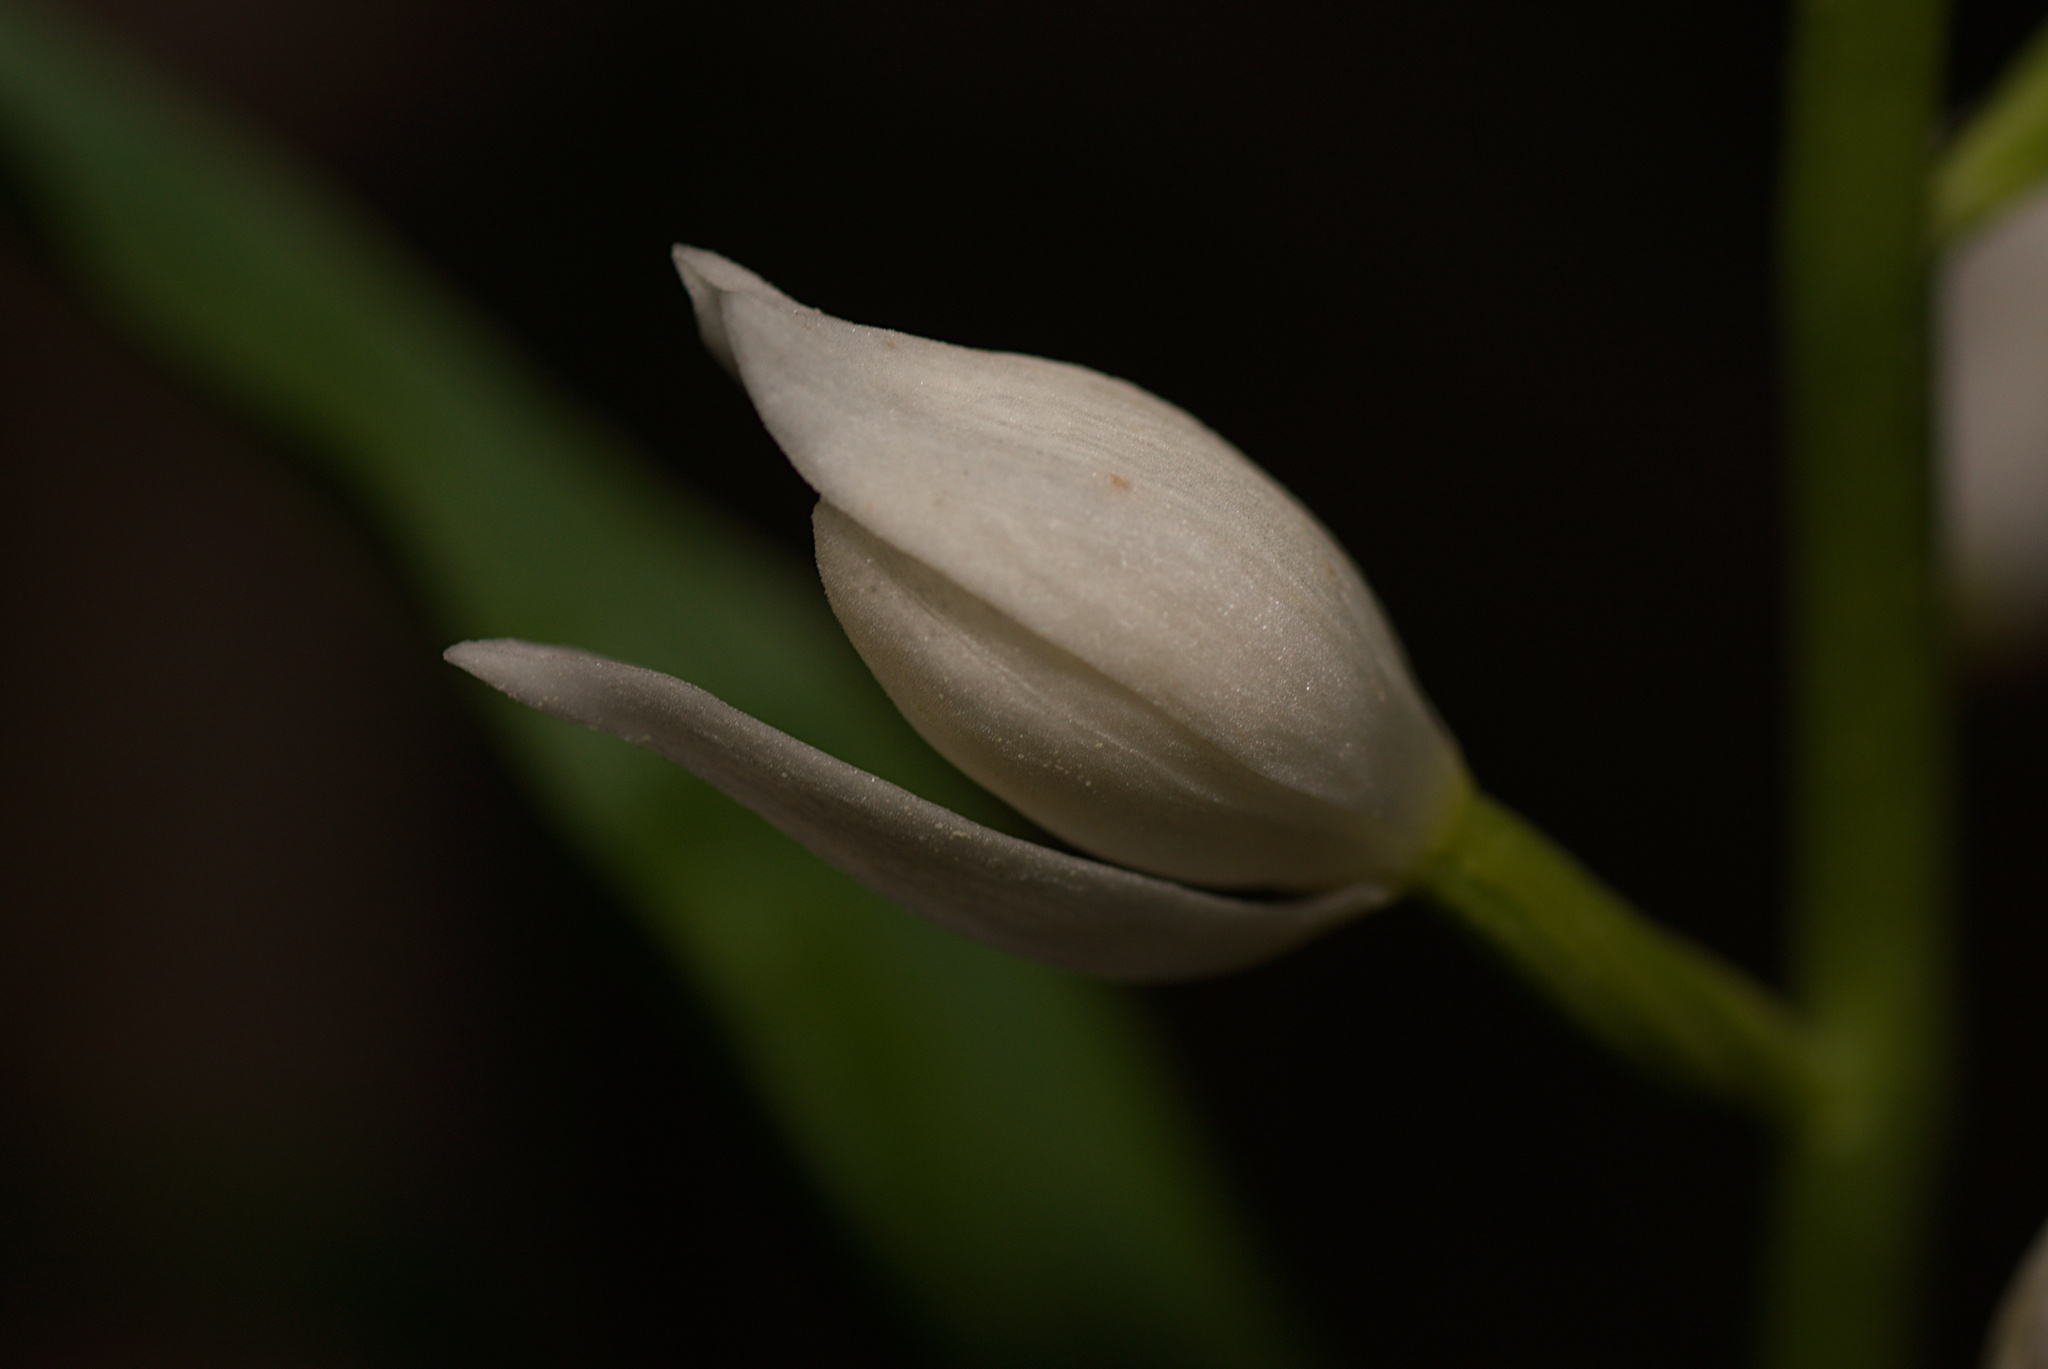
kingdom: Plantae
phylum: Tracheophyta
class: Liliopsida
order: Asparagales
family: Orchidaceae
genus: Cephalanthera
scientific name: Cephalanthera longifolia
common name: Narrow-leaved helleborine
